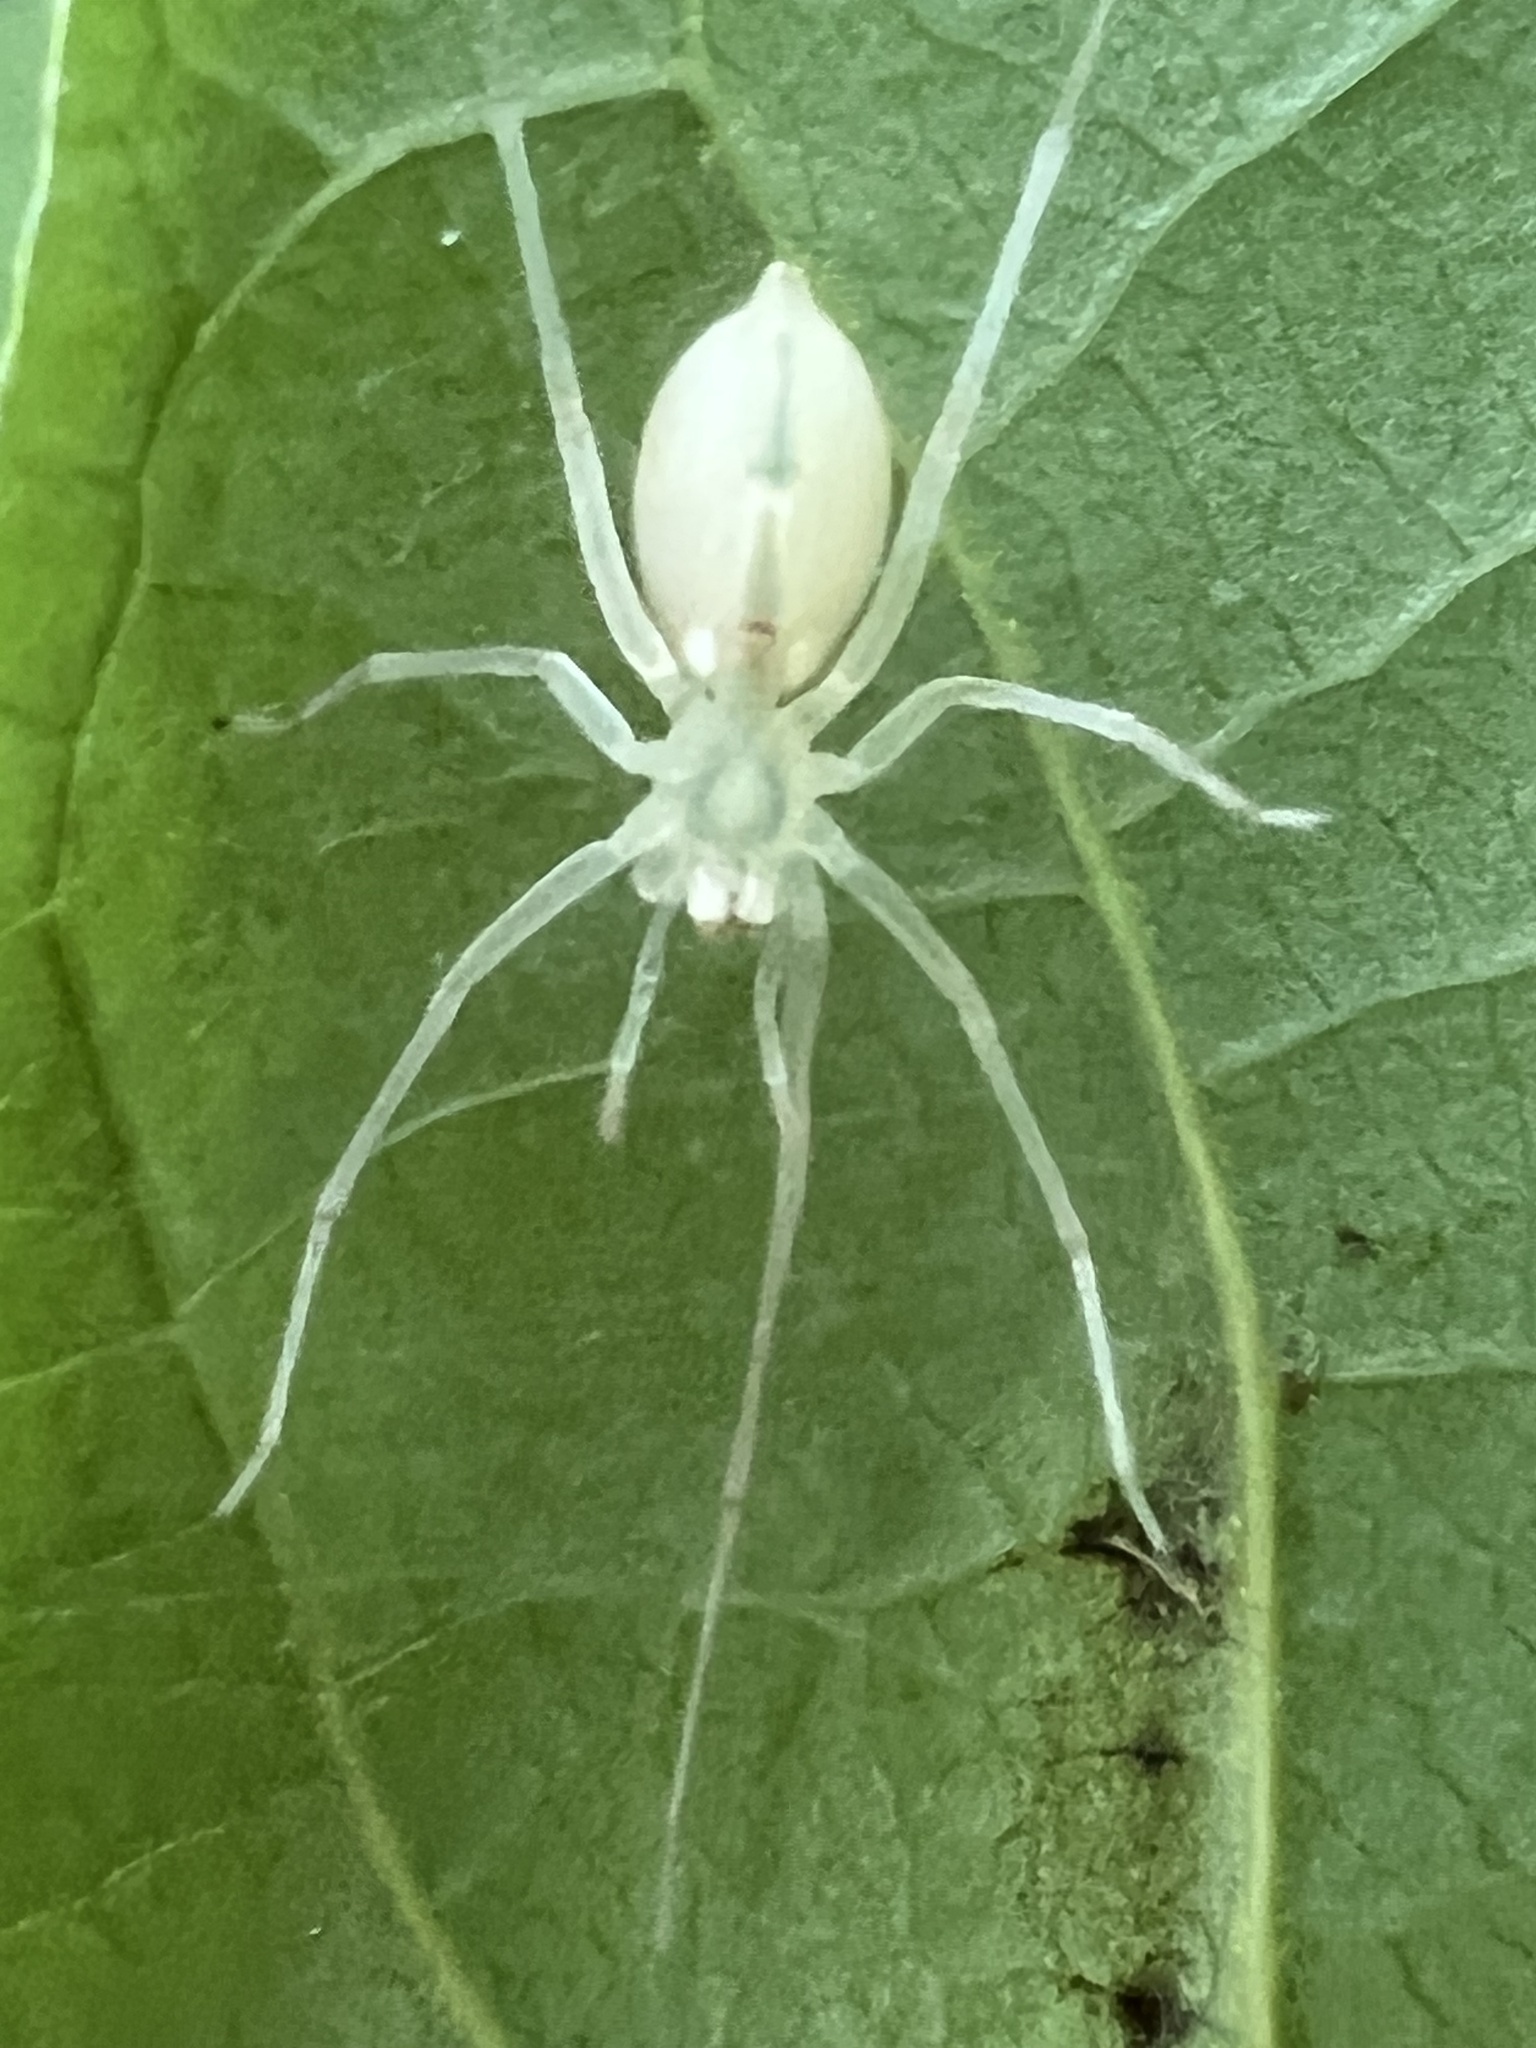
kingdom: Animalia
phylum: Arthropoda
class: Arachnida
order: Araneae
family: Anyphaenidae
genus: Wulfila
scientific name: Wulfila albens
